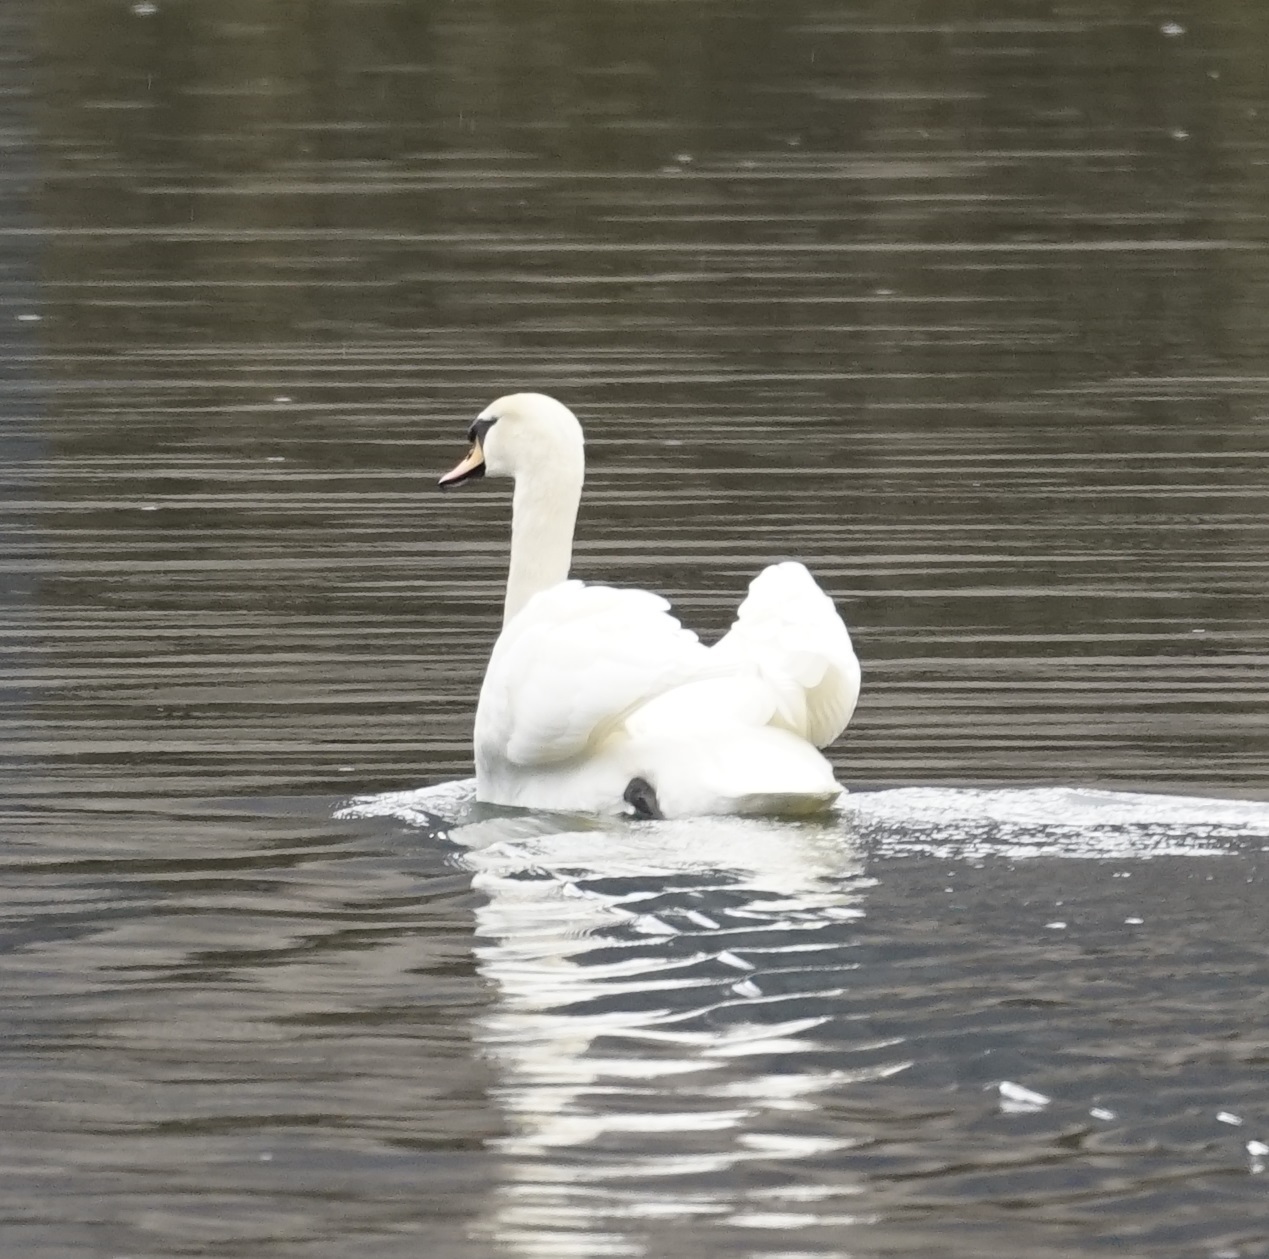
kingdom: Animalia
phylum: Chordata
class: Aves
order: Anseriformes
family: Anatidae
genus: Cygnus
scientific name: Cygnus olor
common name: Mute swan
